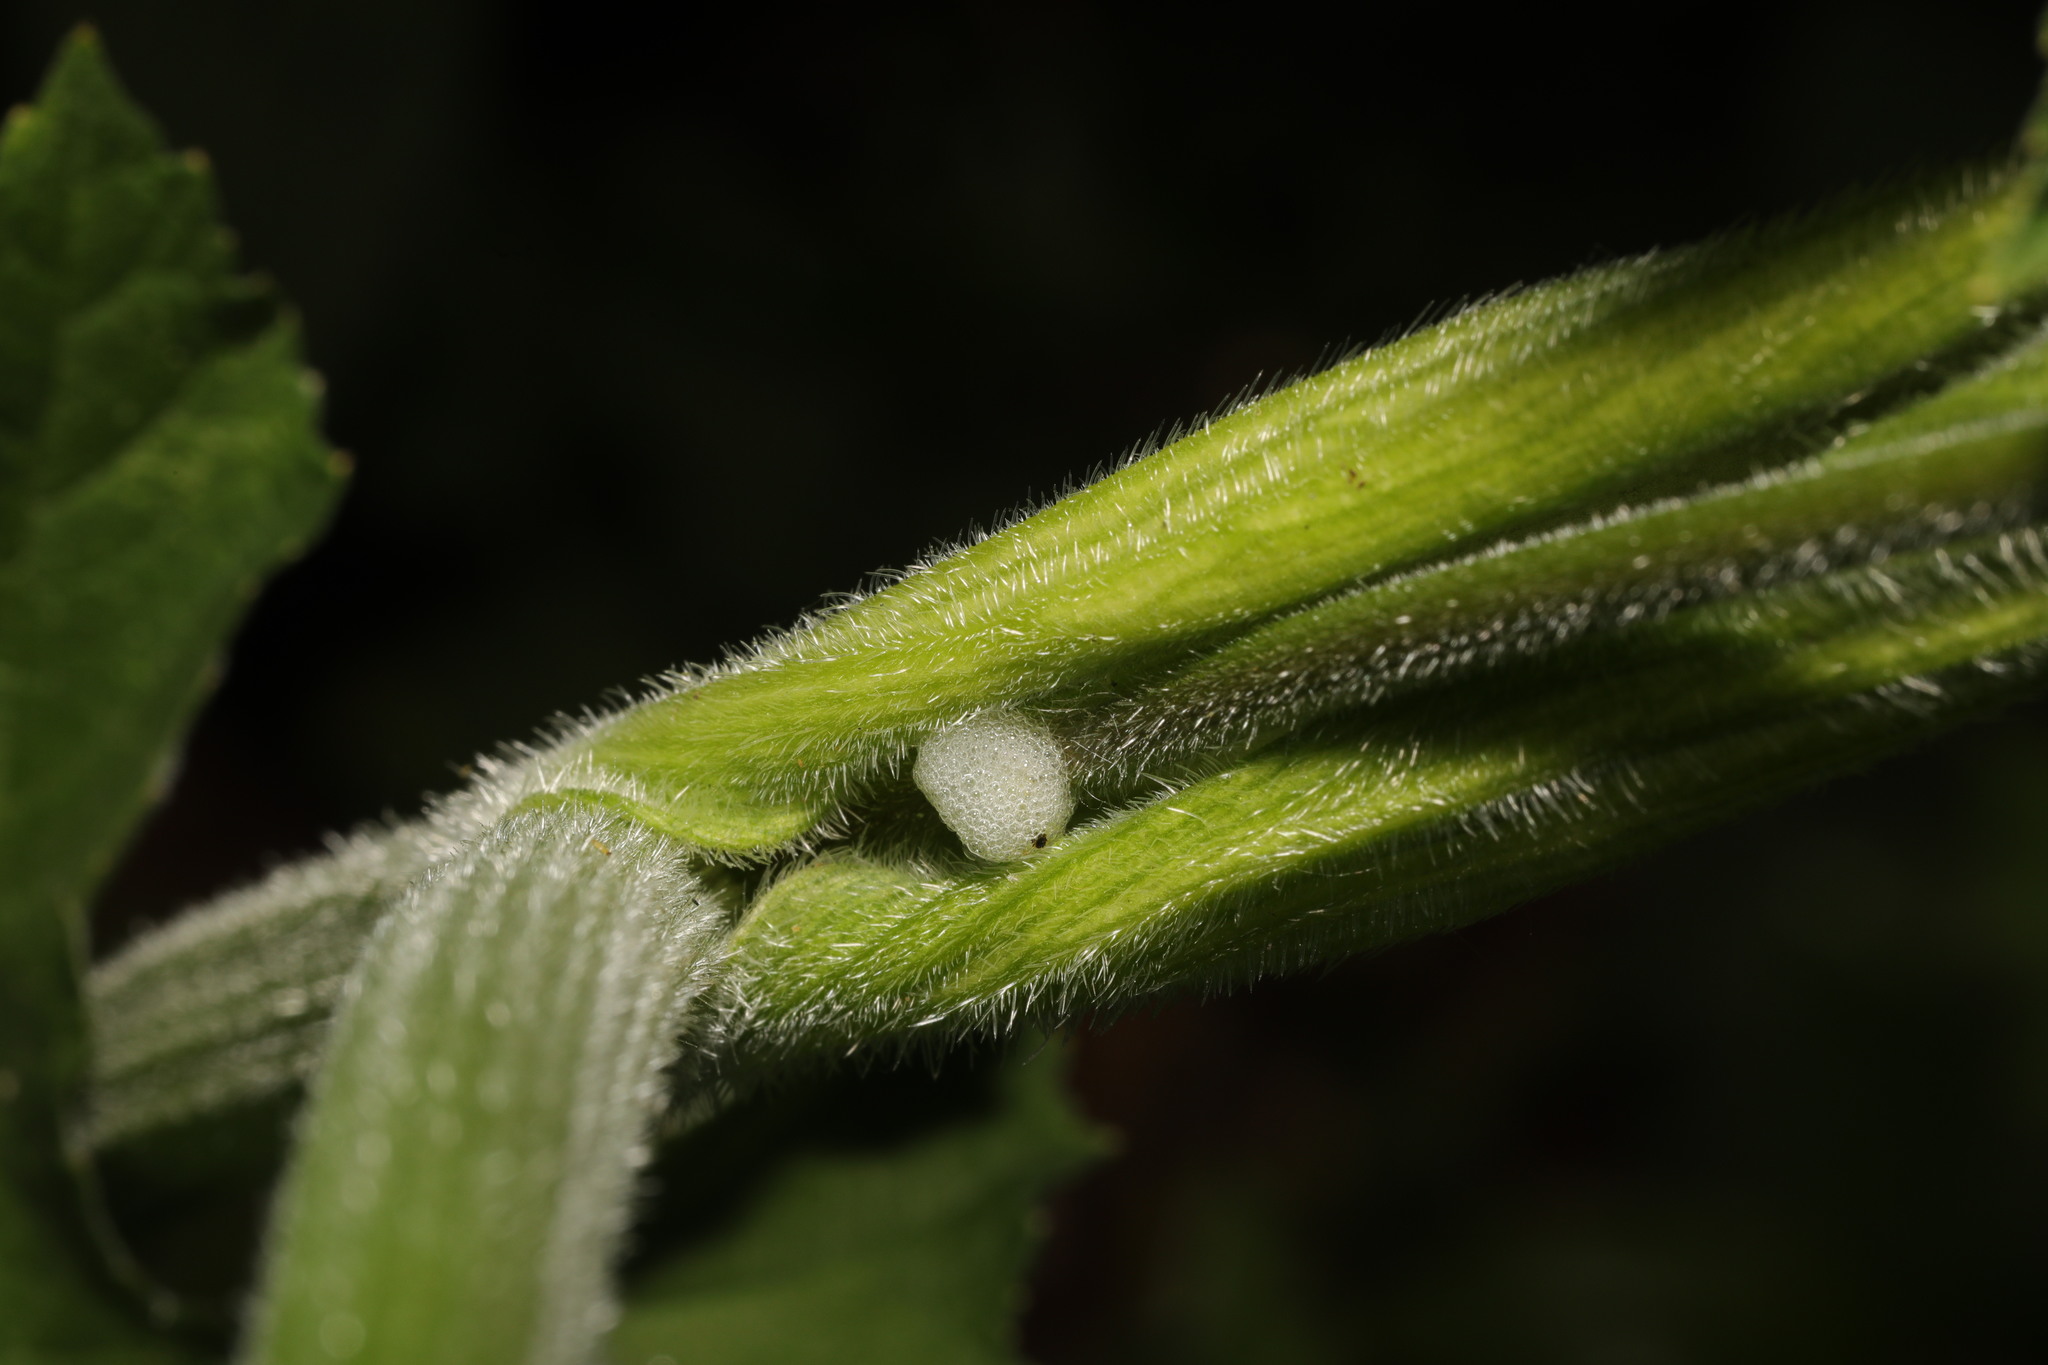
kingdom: Animalia
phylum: Arthropoda
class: Insecta
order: Hemiptera
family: Aphrophoridae
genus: Philaenus
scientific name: Philaenus spumarius
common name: Meadow spittlebug
